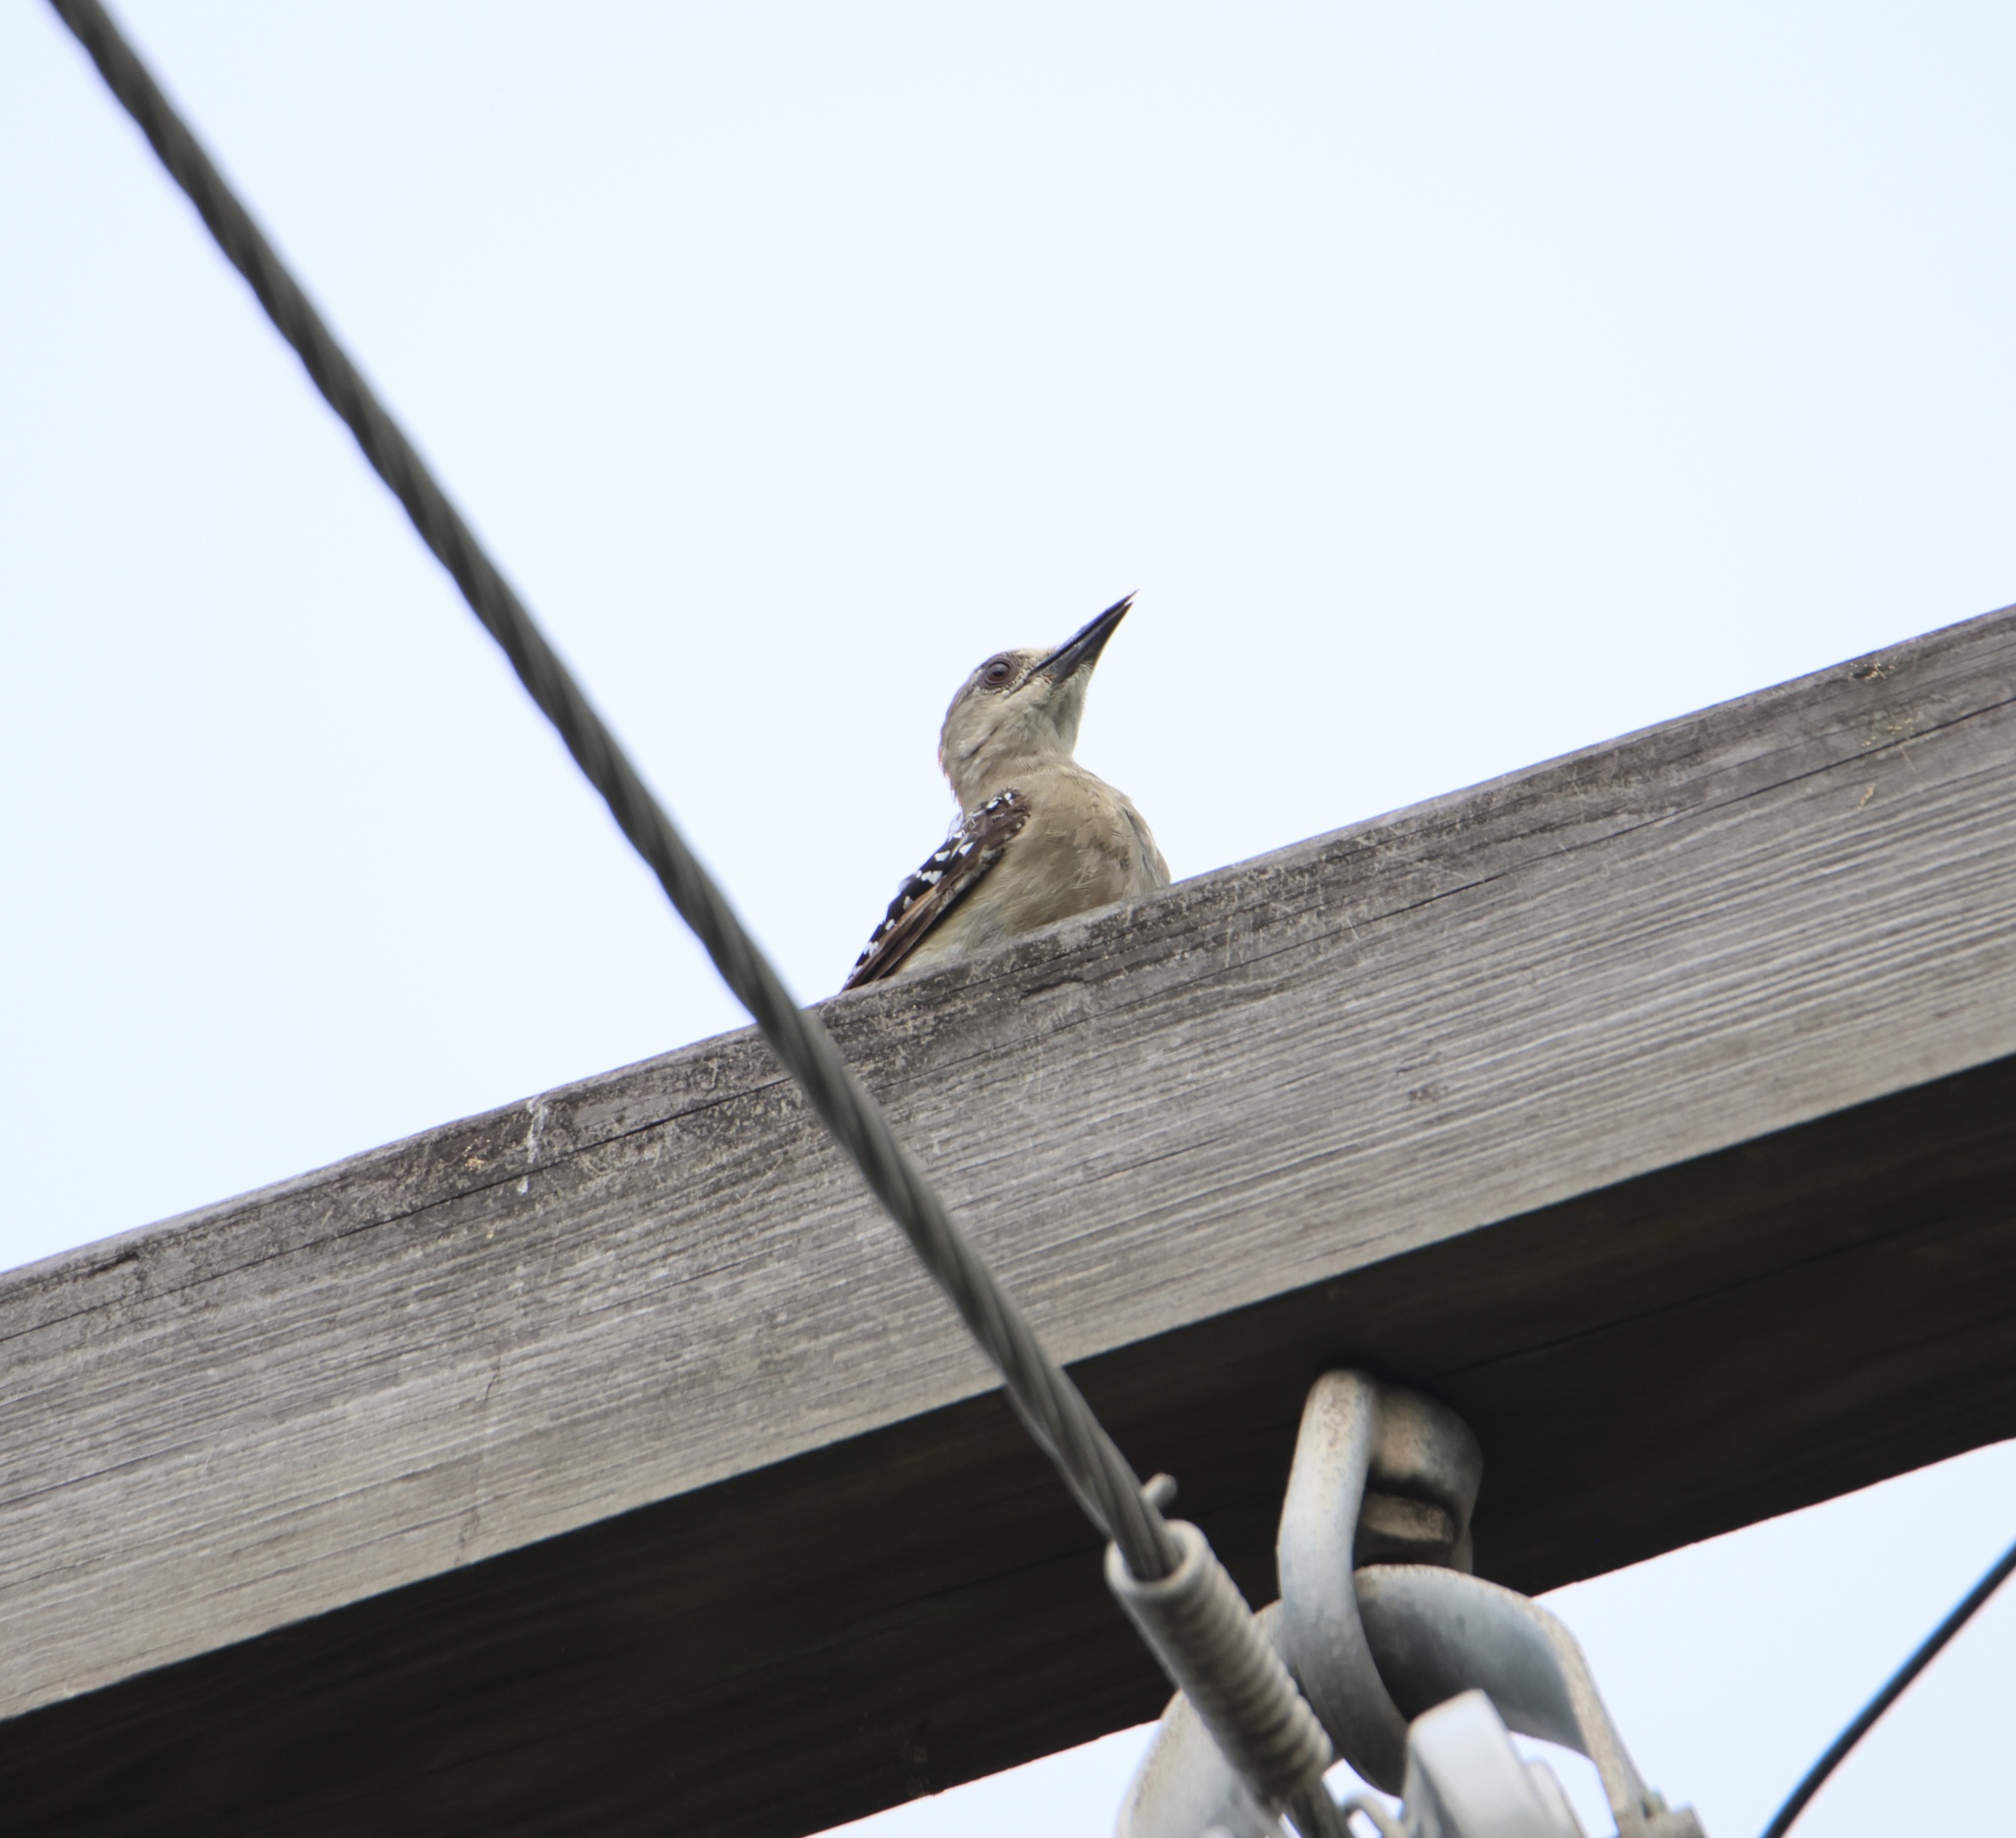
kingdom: Animalia
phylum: Chordata
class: Aves
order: Piciformes
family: Picidae
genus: Melanerpes
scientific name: Melanerpes rubricapillus
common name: Red-crowned woodpecker
